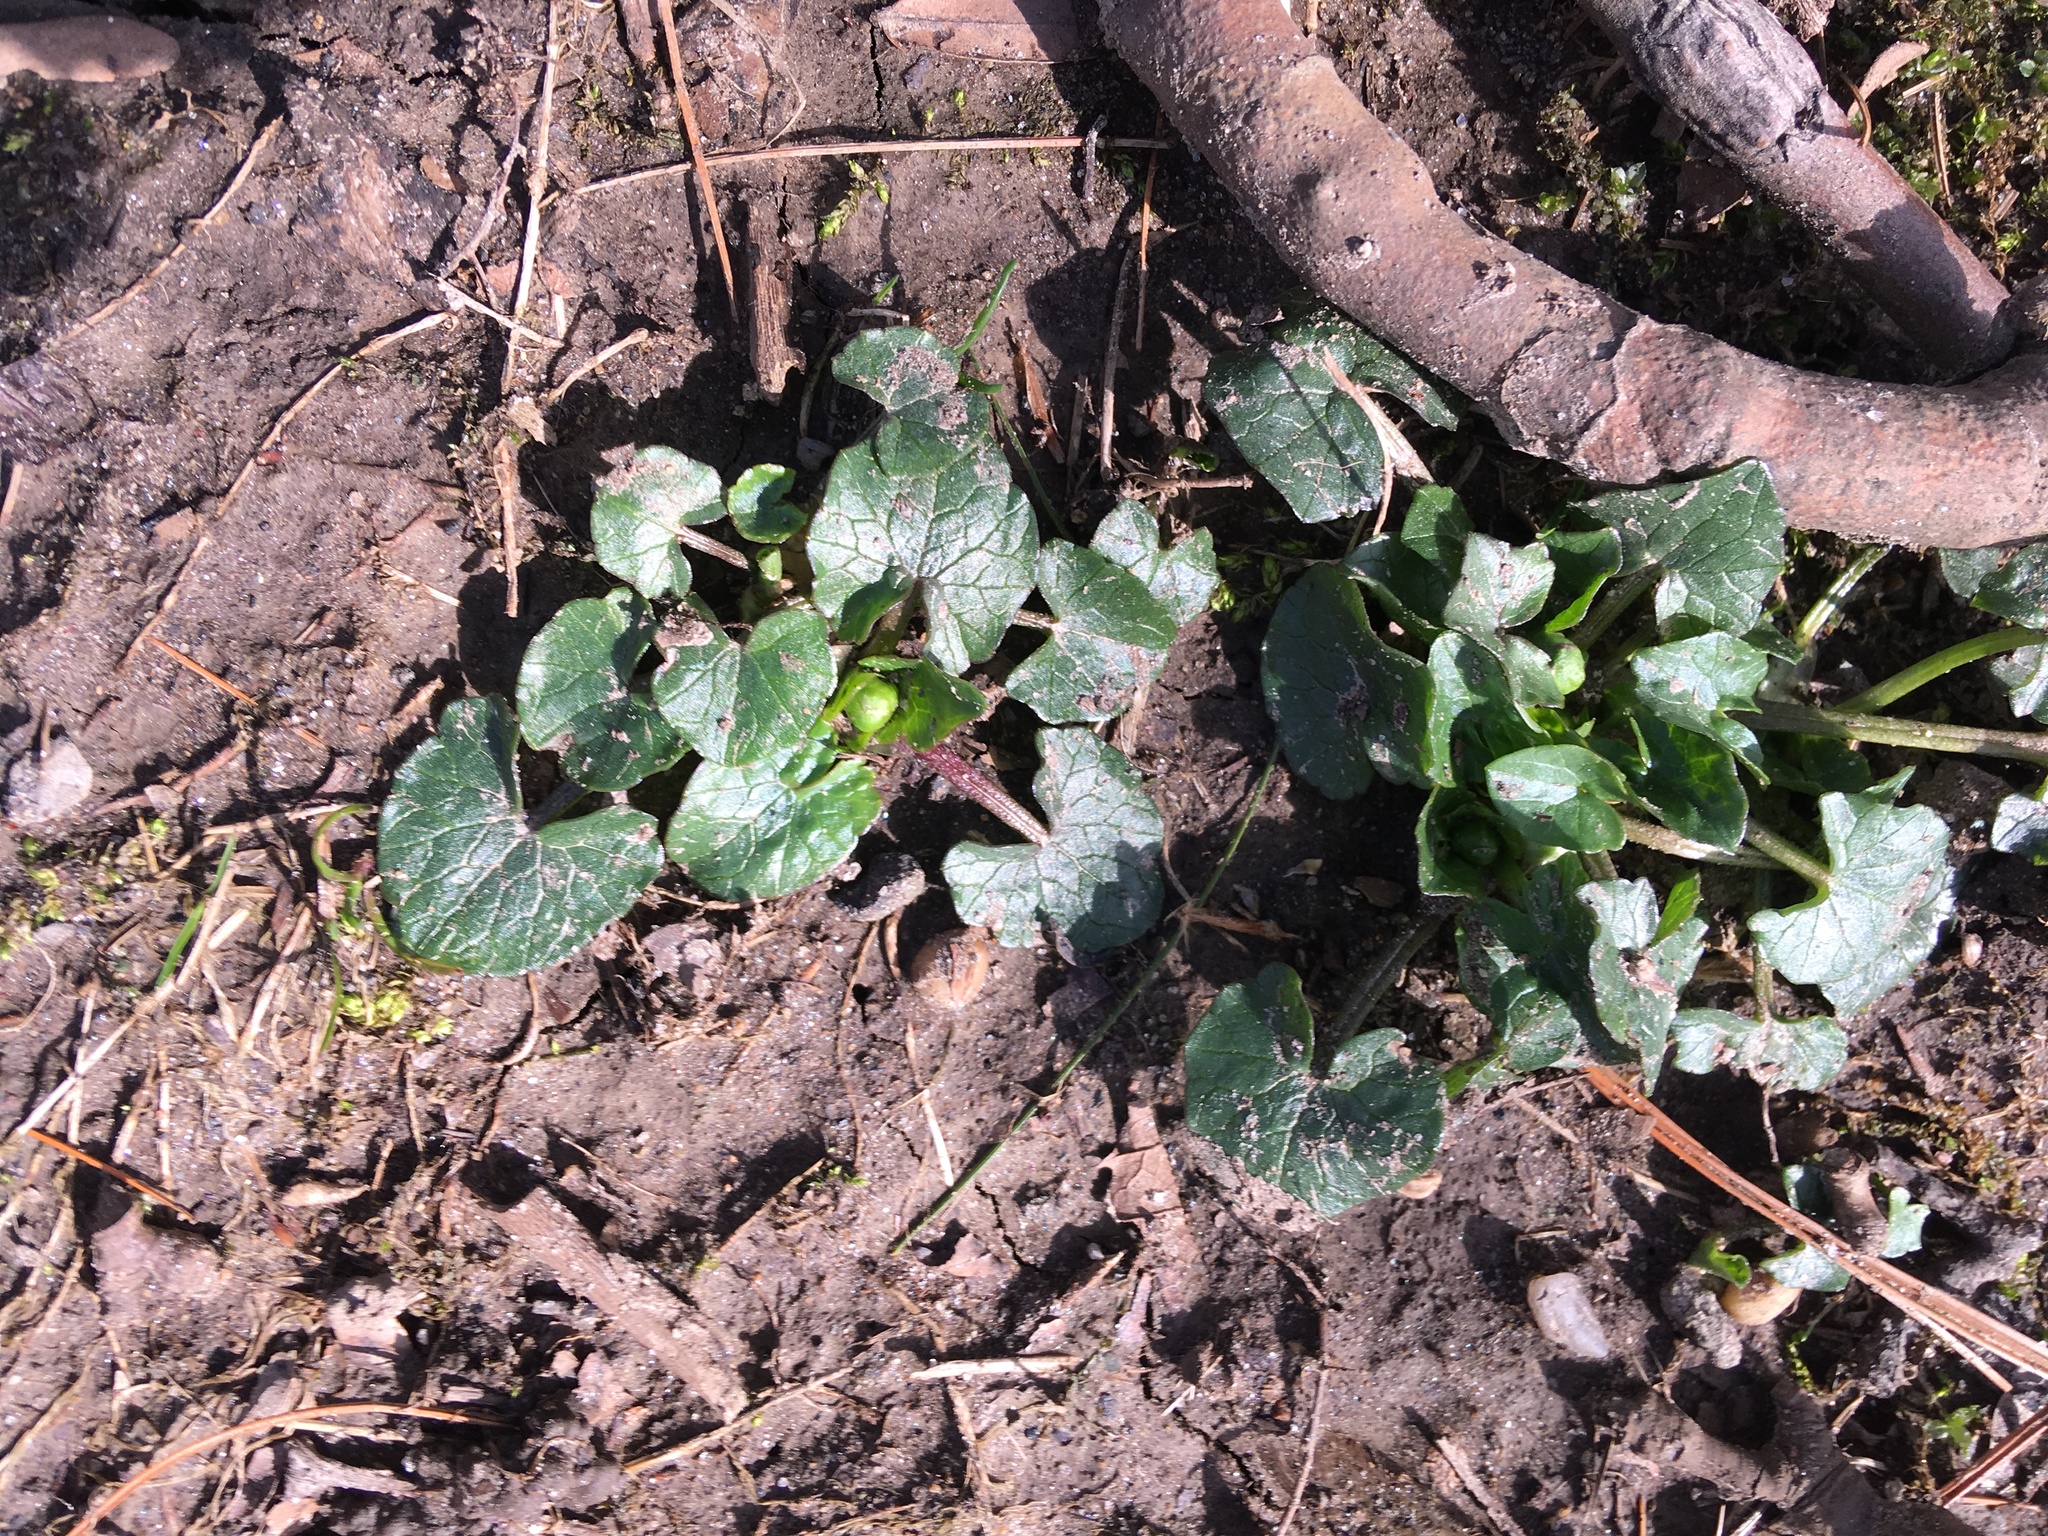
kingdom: Plantae
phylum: Tracheophyta
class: Magnoliopsida
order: Ranunculales
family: Ranunculaceae
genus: Ficaria
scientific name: Ficaria verna
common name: Lesser celandine
